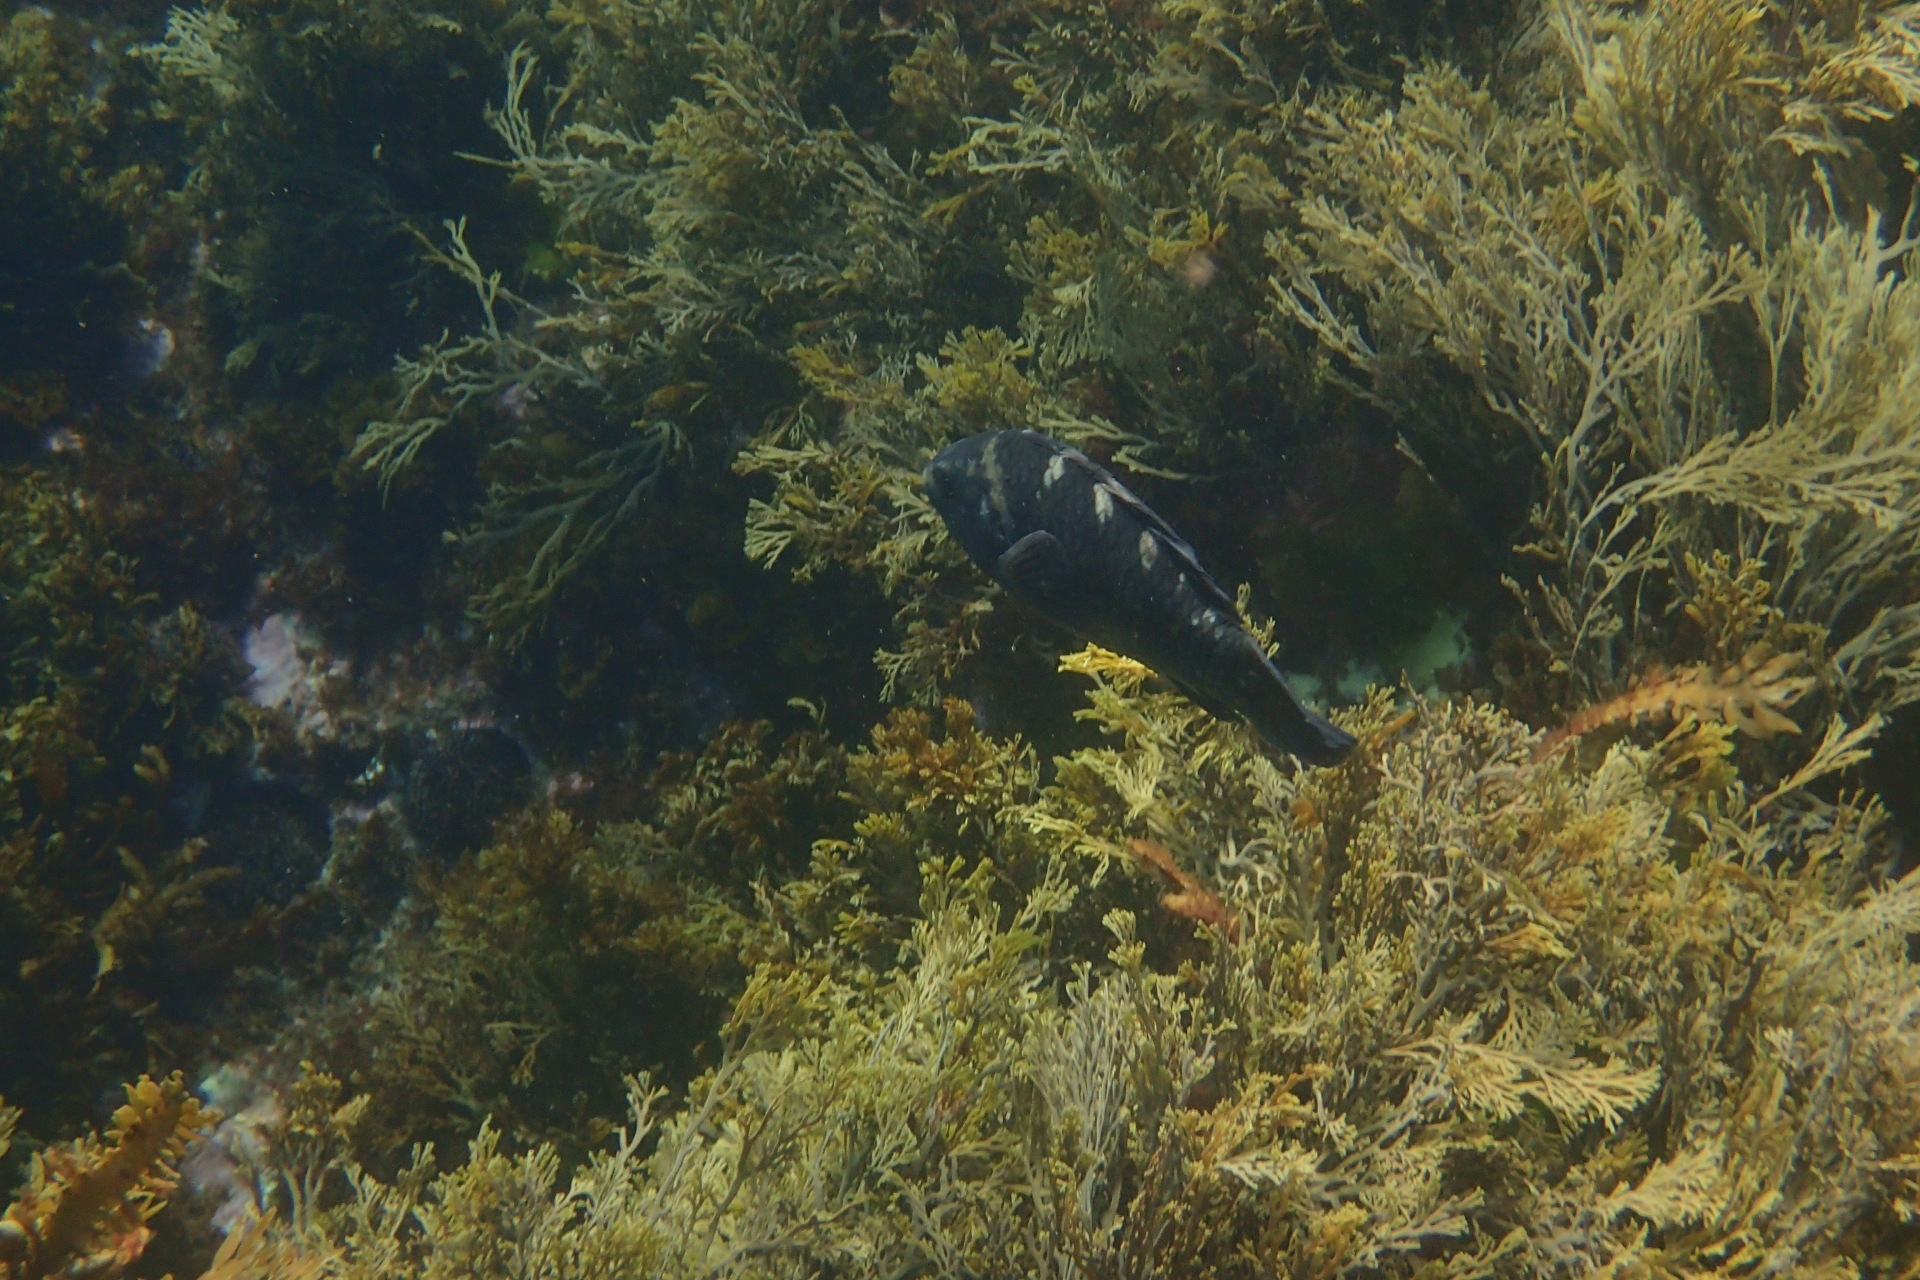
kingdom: Animalia
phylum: Chordata
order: Perciformes
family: Labridae
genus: Notolabrus
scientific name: Notolabrus fucicola
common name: Banded parrotfish
